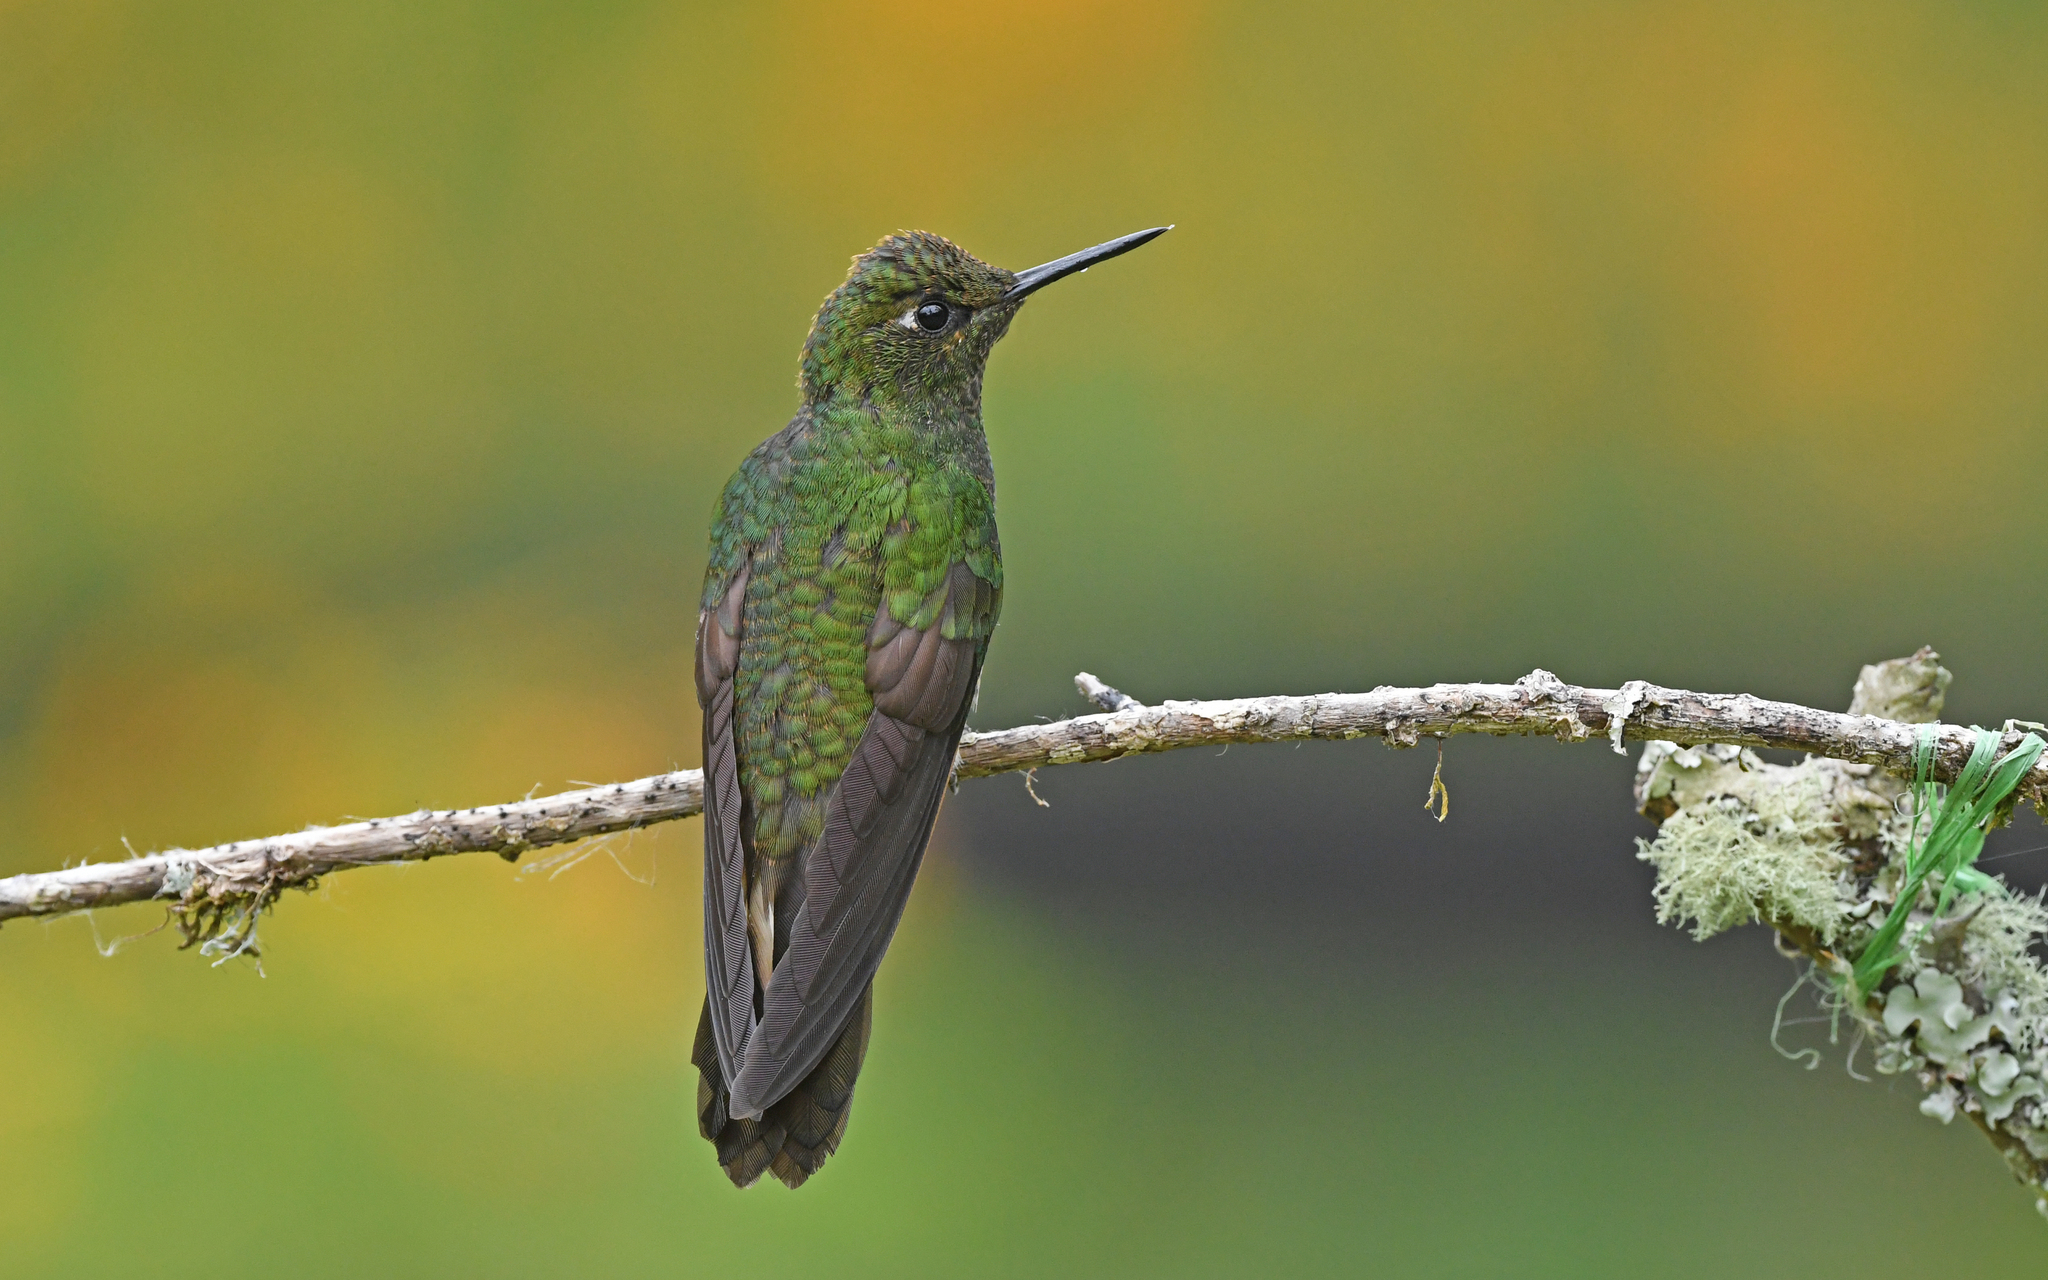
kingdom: Animalia
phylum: Chordata
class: Aves
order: Apodiformes
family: Trochilidae
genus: Boissonneaua
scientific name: Boissonneaua flavescens
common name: Buff-tailed coronet
